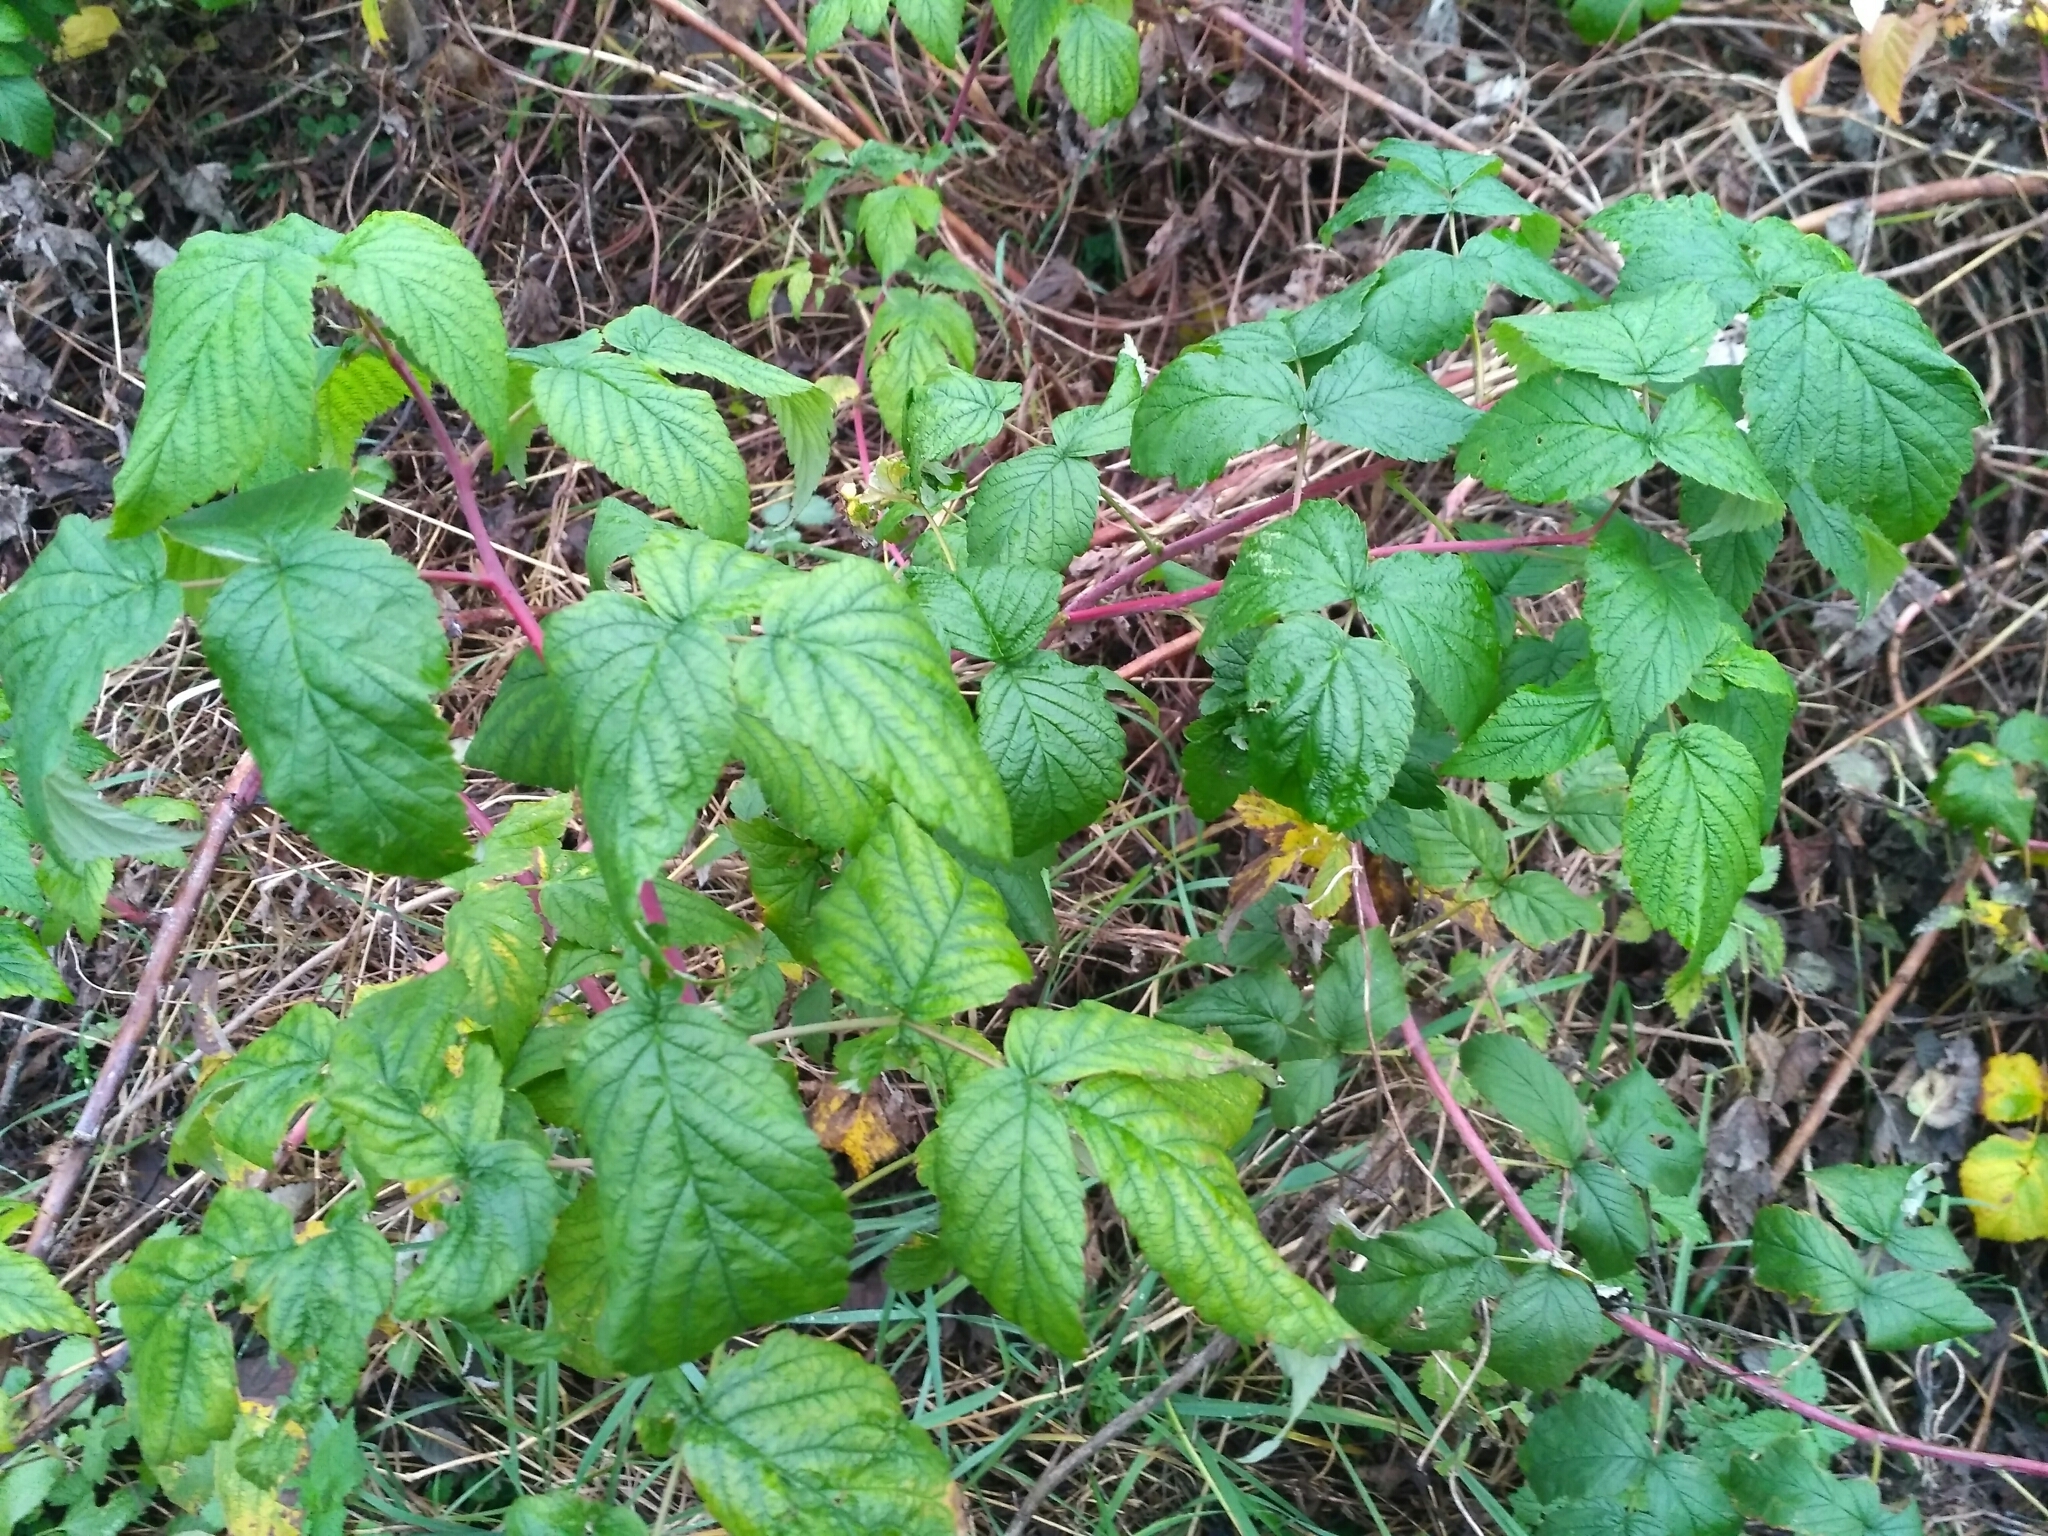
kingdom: Plantae
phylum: Tracheophyta
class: Magnoliopsida
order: Rosales
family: Rosaceae
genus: Rubus
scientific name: Rubus idaeus
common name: Raspberry
